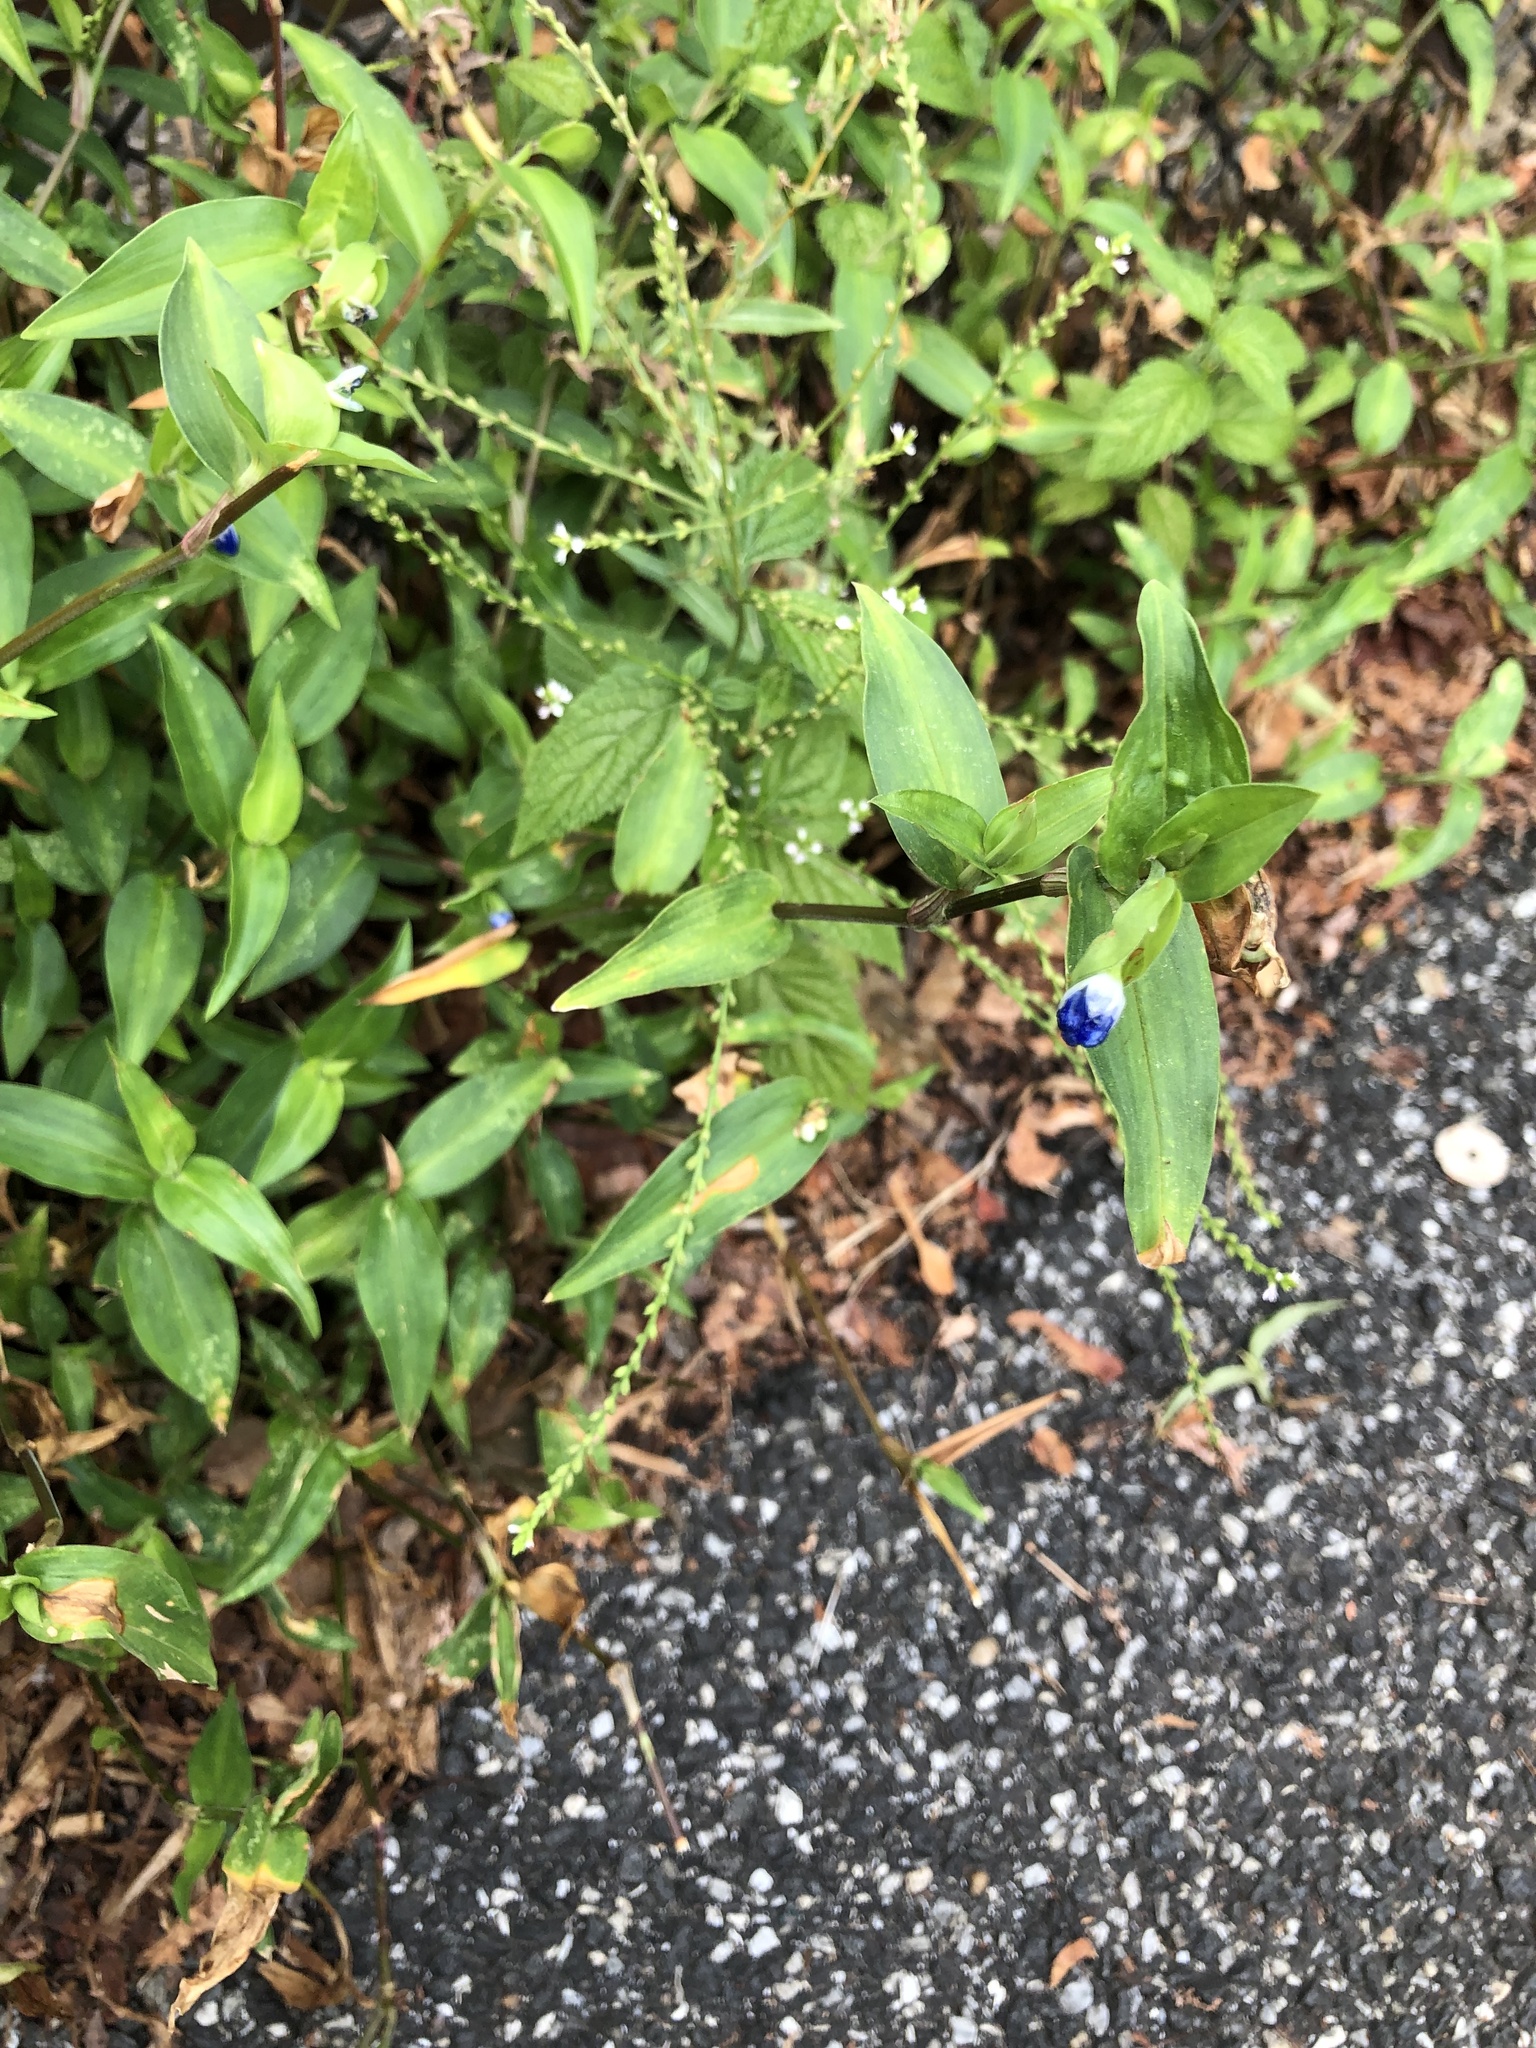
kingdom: Plantae
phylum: Tracheophyta
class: Liliopsida
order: Commelinales
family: Commelinaceae
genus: Commelina
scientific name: Commelina communis
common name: Asiatic dayflower
